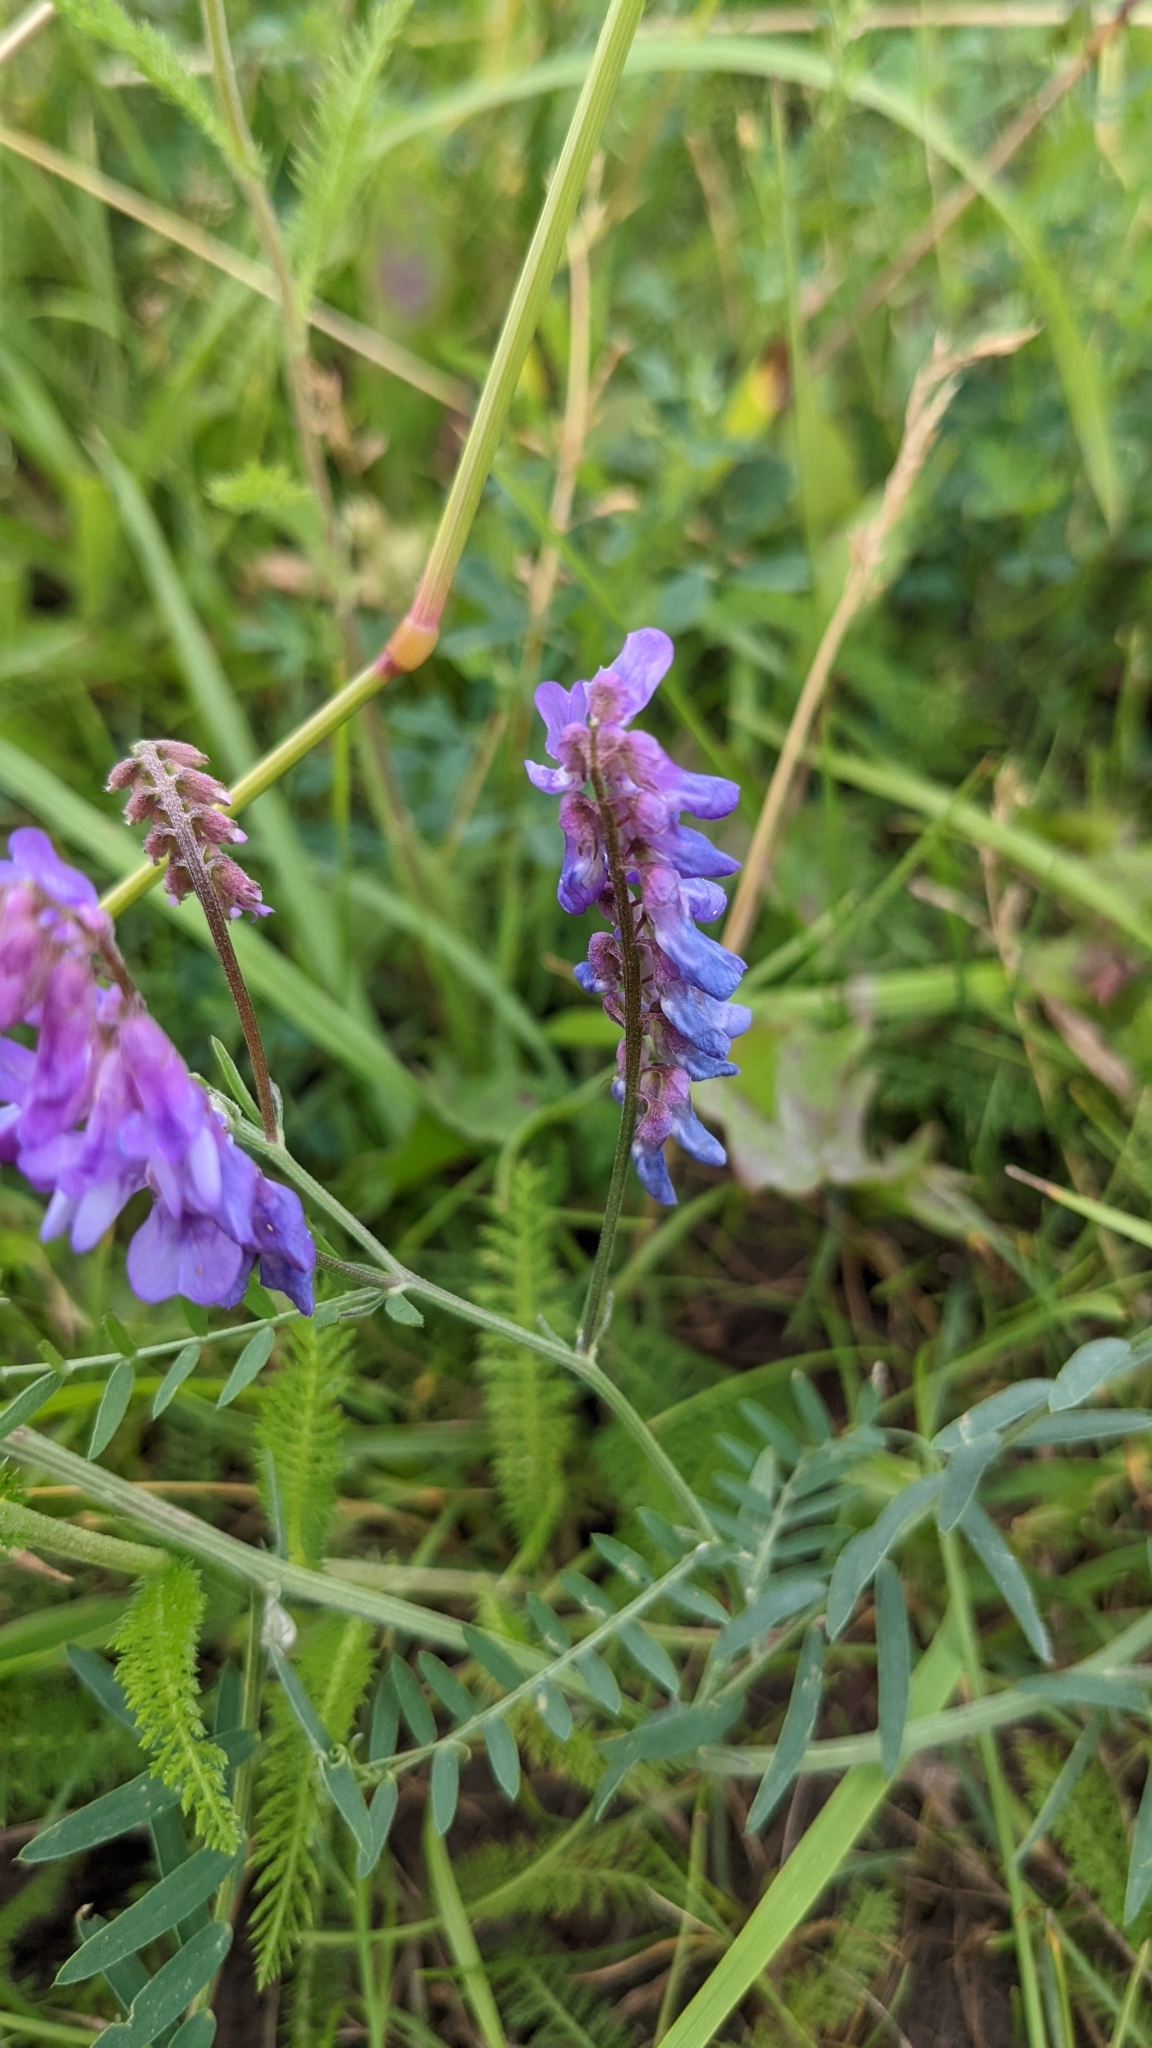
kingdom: Plantae
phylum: Tracheophyta
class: Magnoliopsida
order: Fabales
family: Fabaceae
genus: Vicia
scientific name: Vicia cracca
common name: Bird vetch
